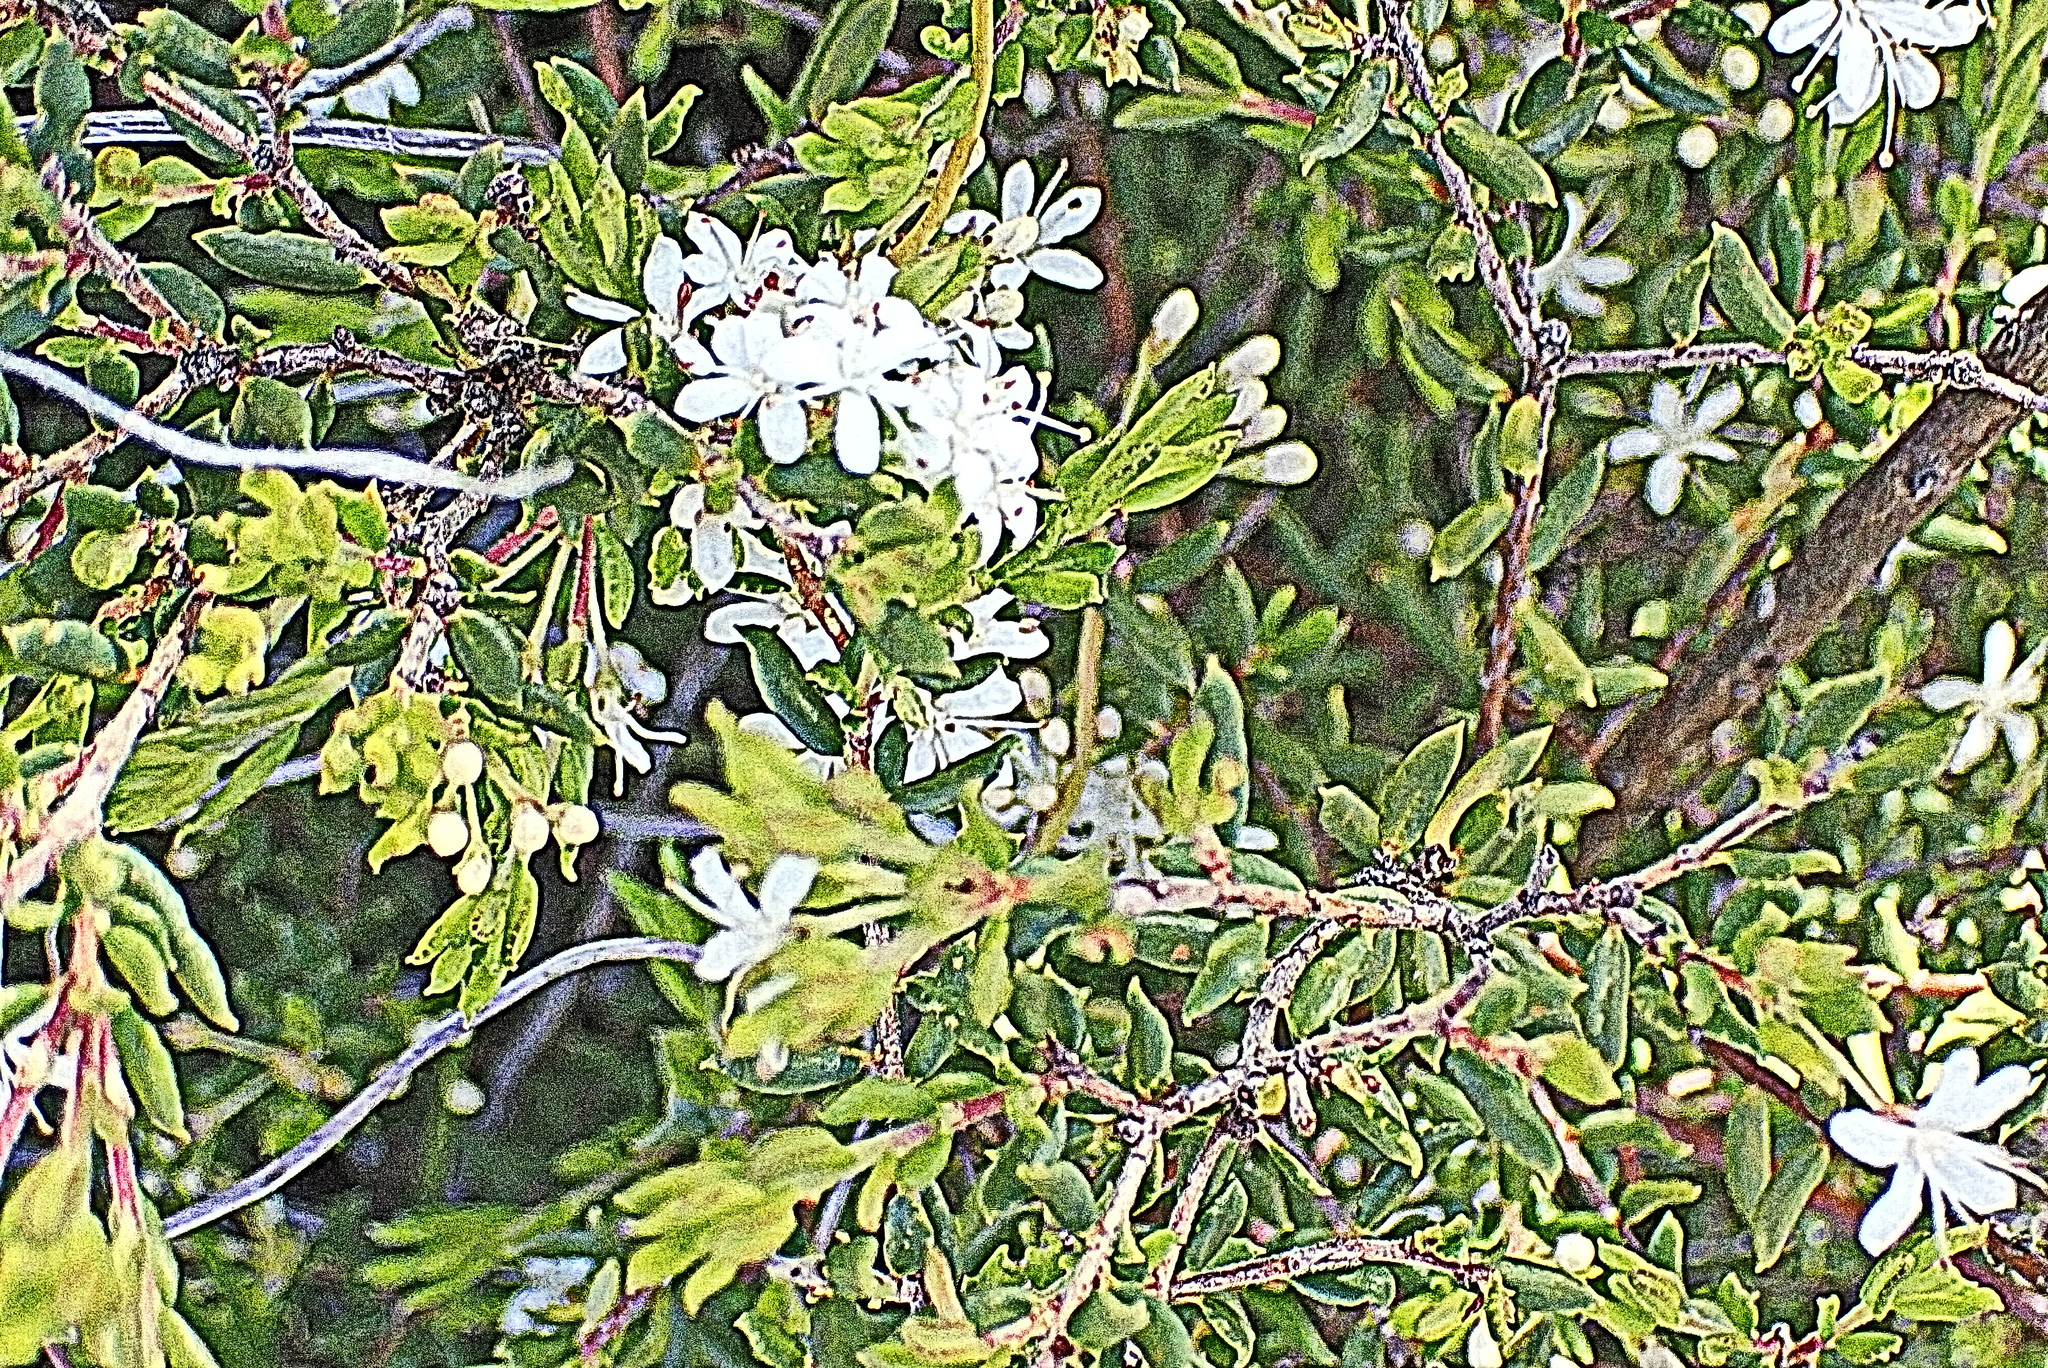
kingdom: Plantae
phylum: Tracheophyta
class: Magnoliopsida
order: Sapindales
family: Rutaceae
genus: Agathosma
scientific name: Agathosma mundtii
